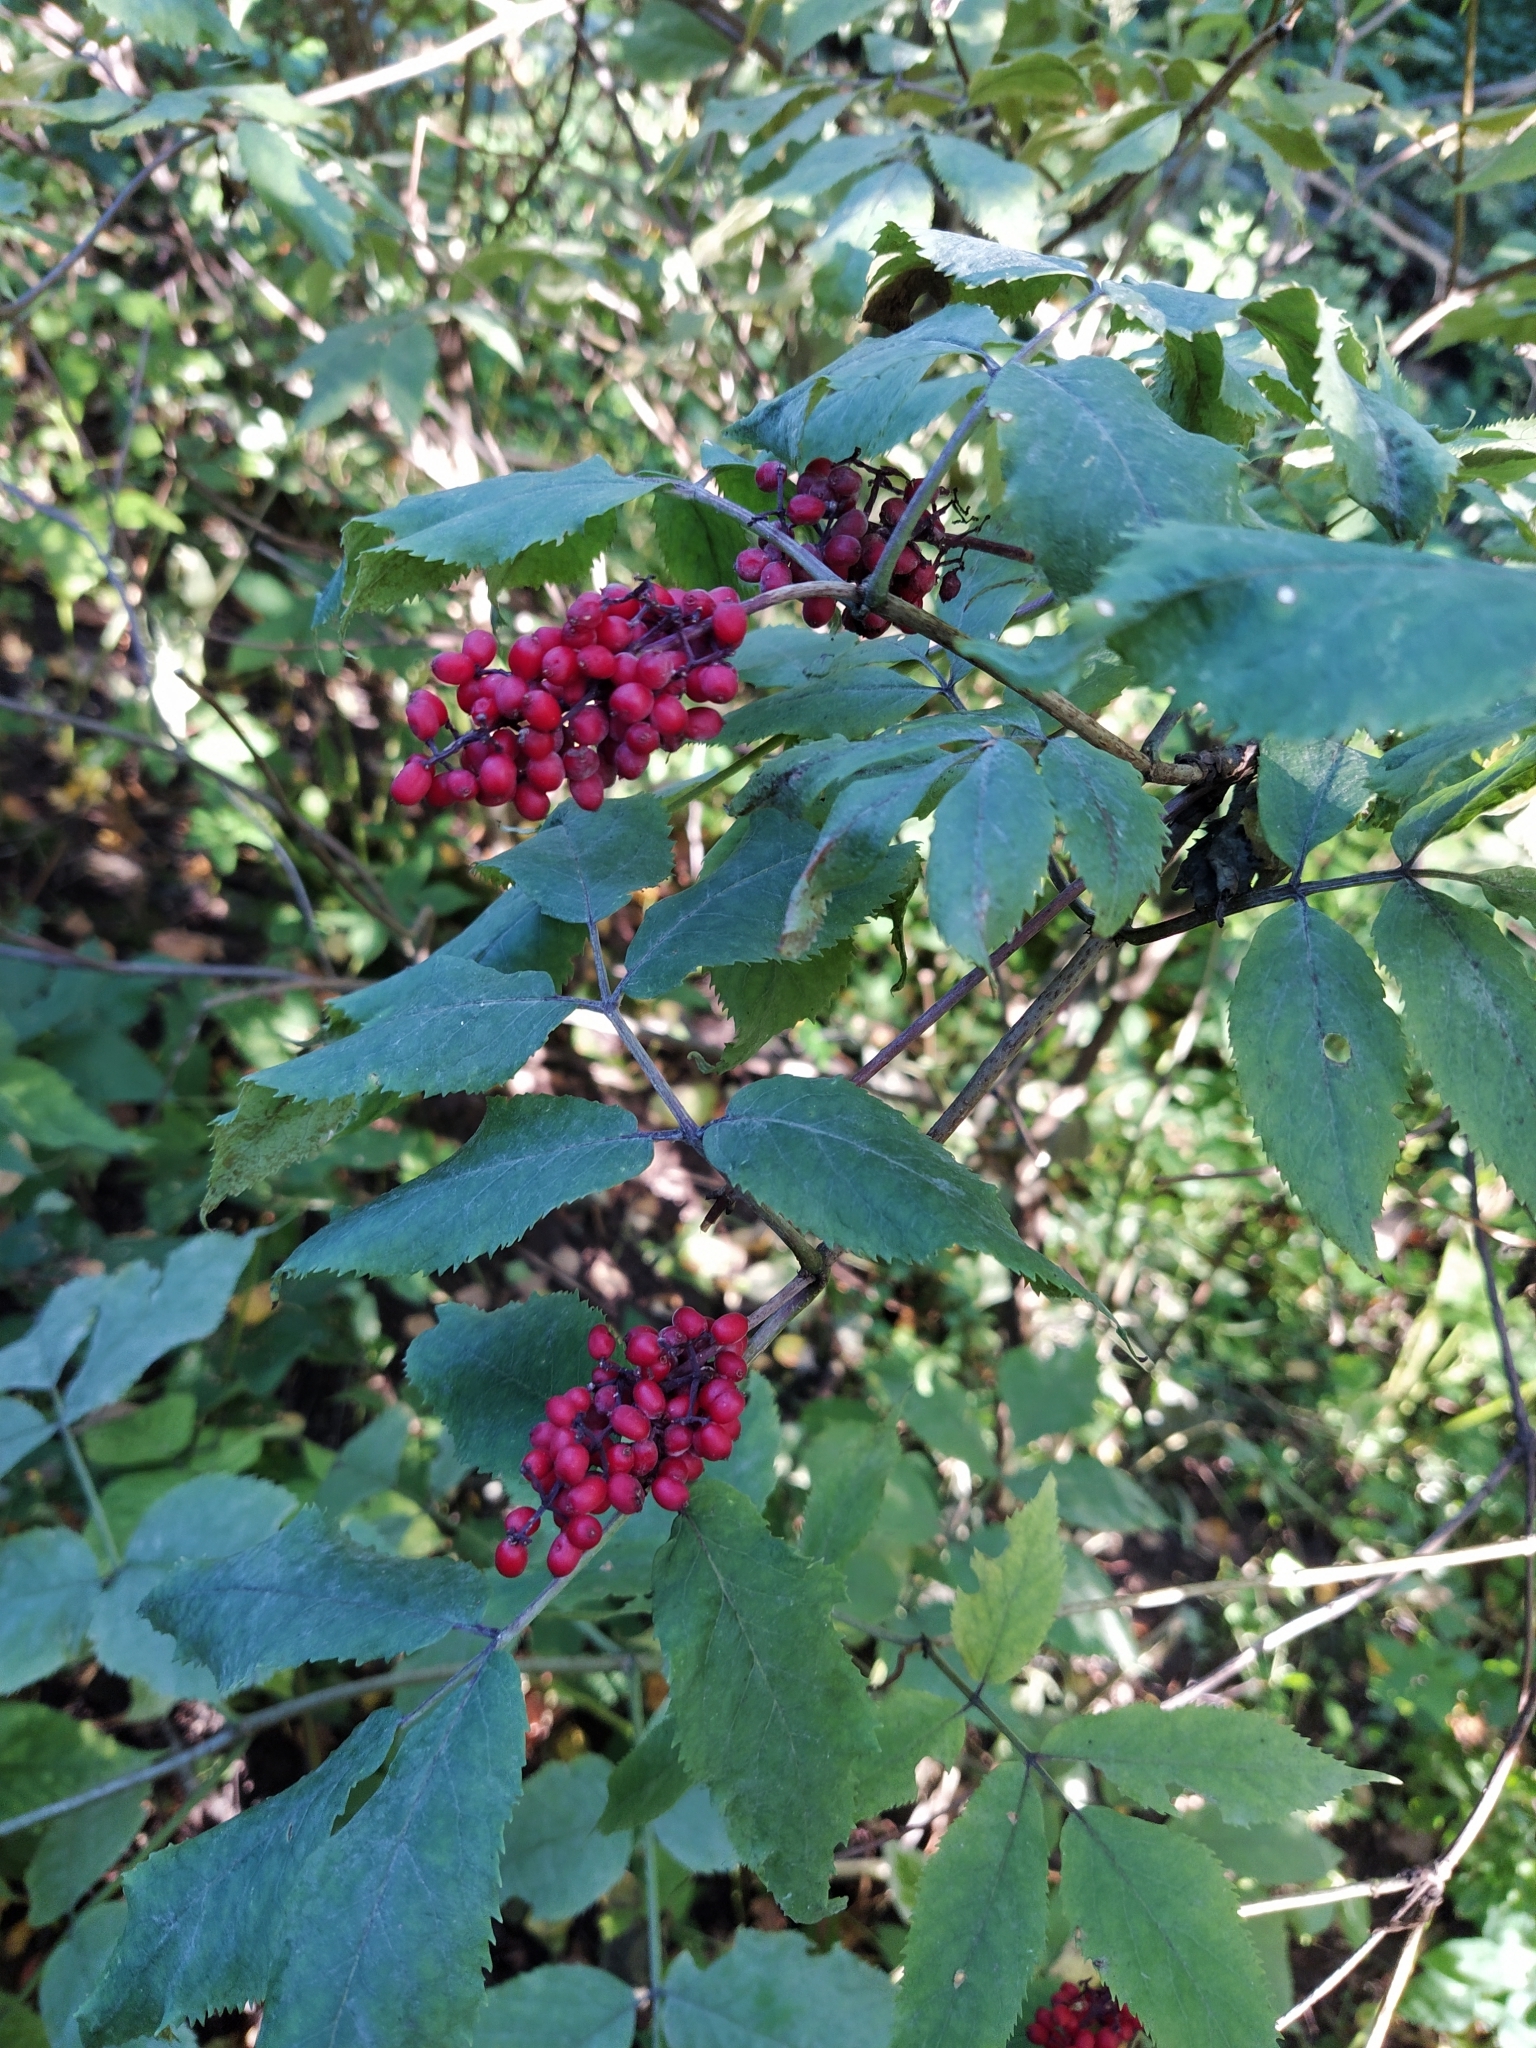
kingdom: Plantae
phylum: Tracheophyta
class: Magnoliopsida
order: Dipsacales
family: Viburnaceae
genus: Sambucus
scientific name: Sambucus racemosa
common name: Red-berried elder
